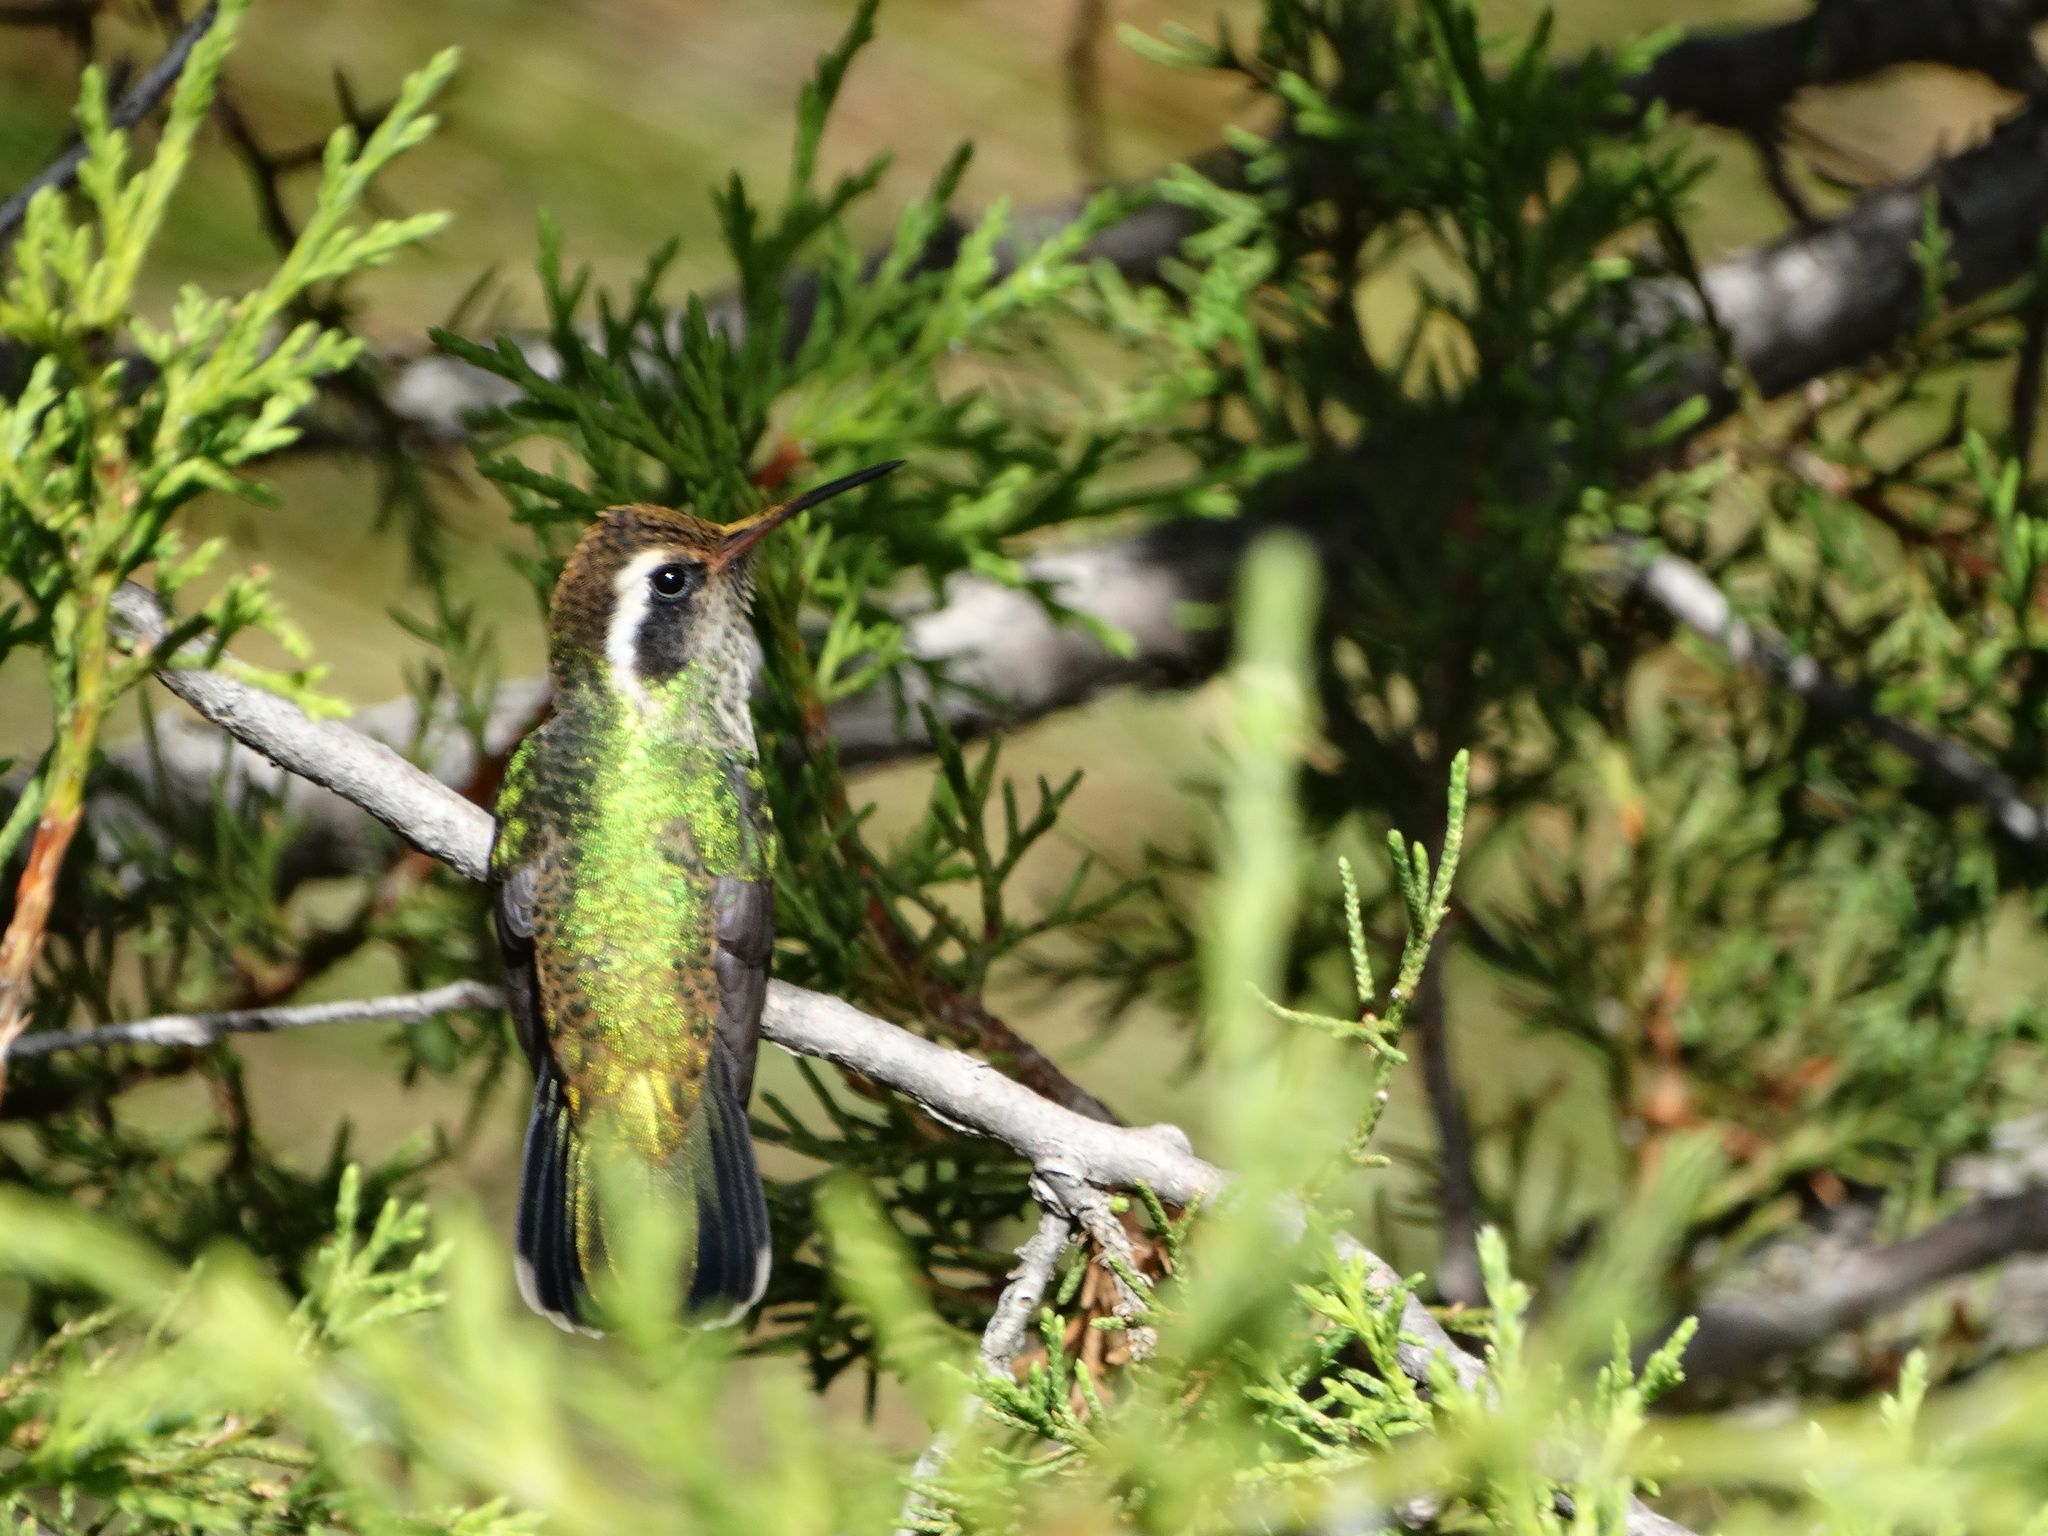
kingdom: Animalia
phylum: Chordata
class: Aves
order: Apodiformes
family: Trochilidae
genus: Basilinna
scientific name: Basilinna leucotis
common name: White-eared hummingbird
